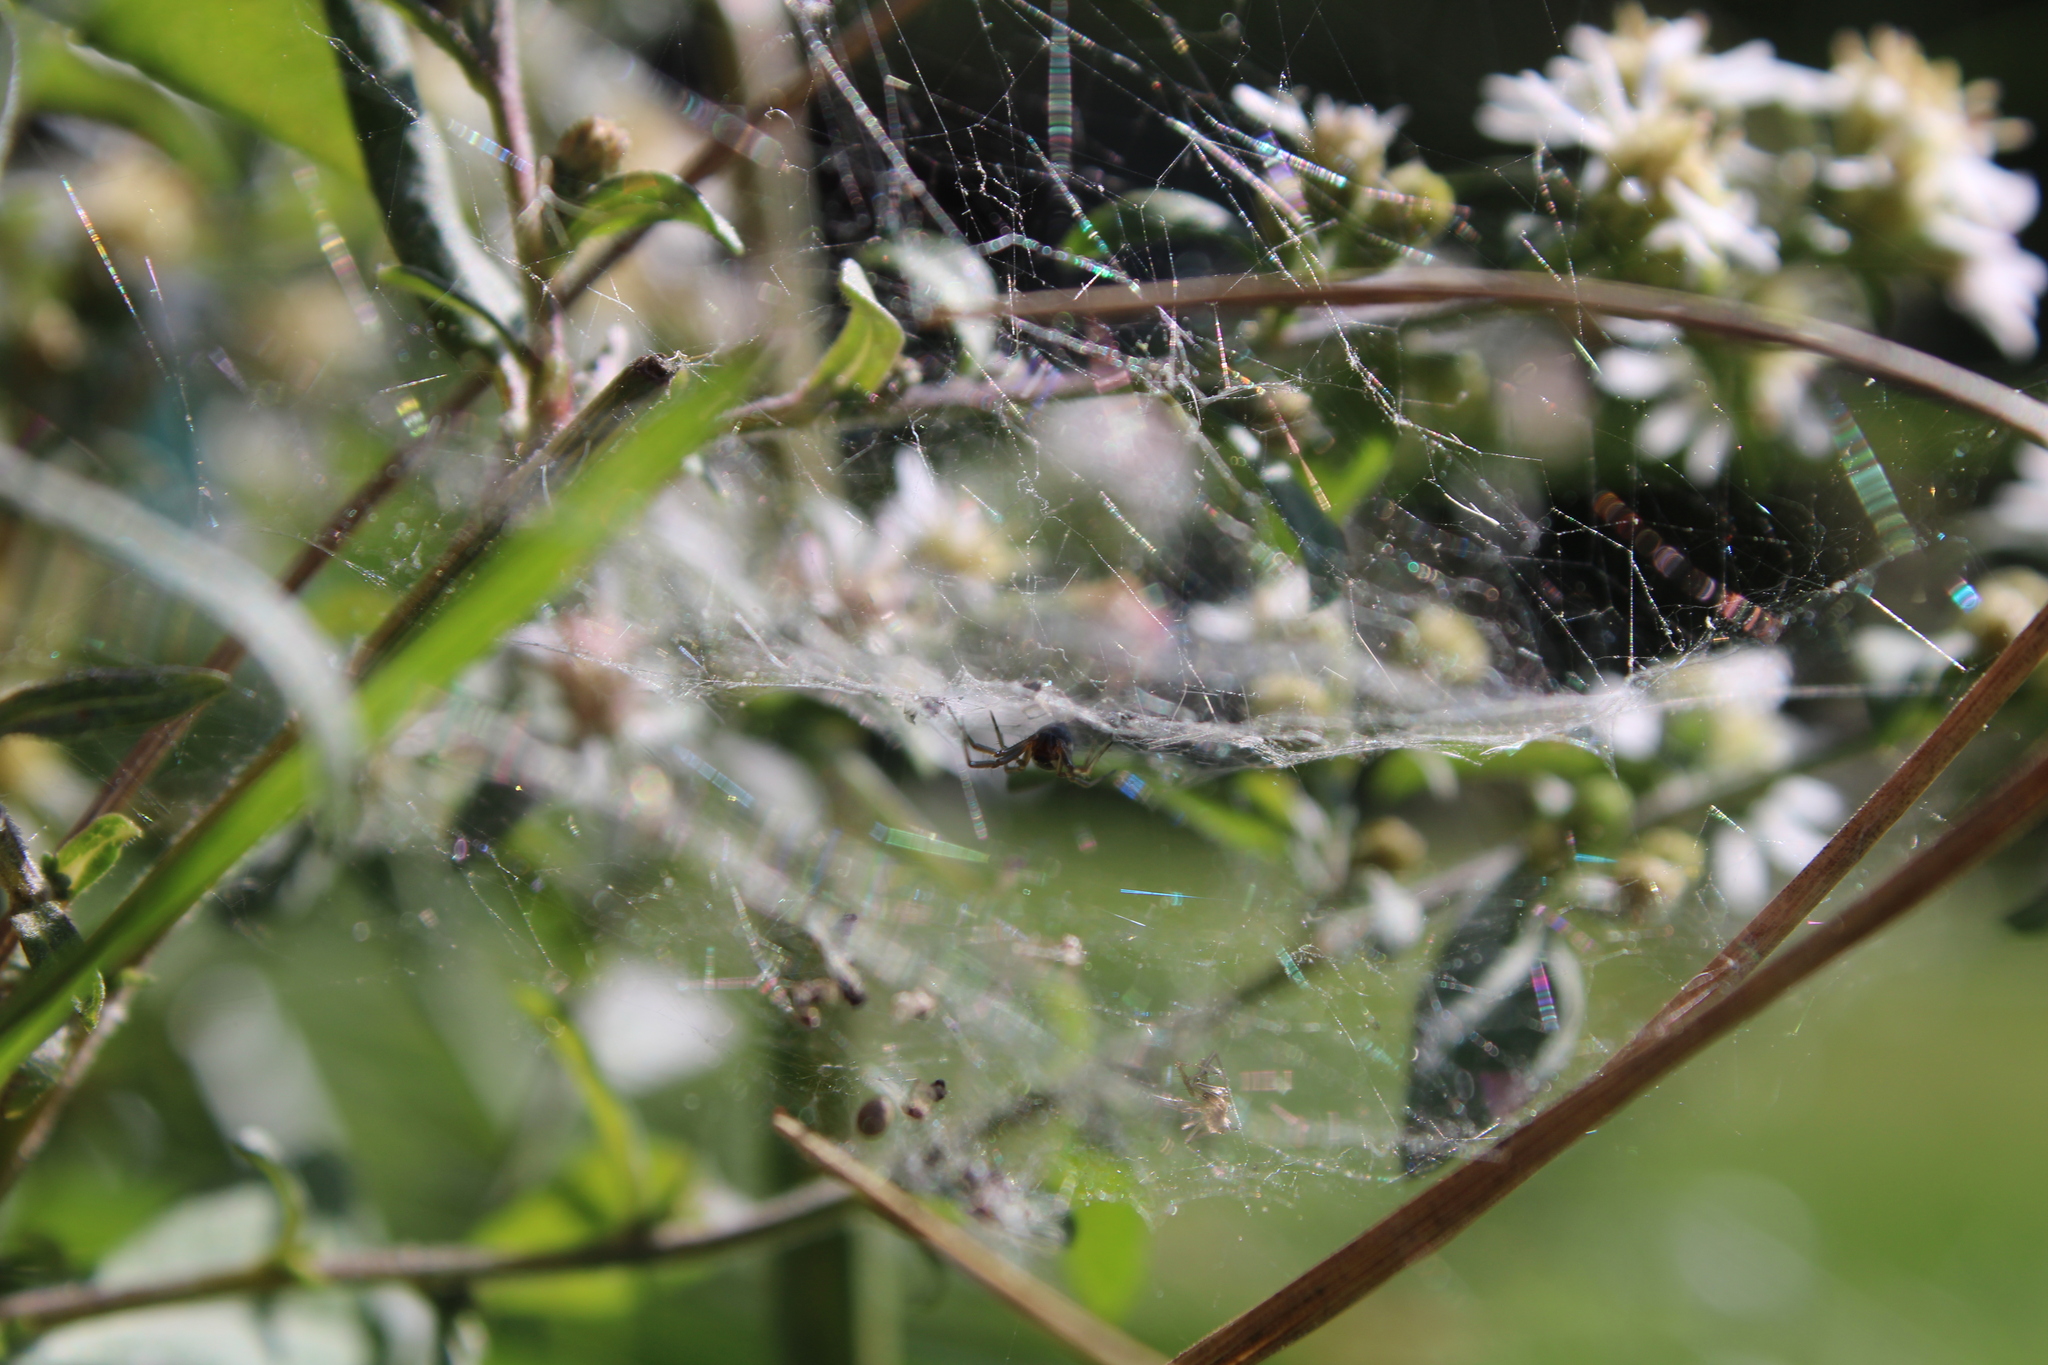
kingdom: Animalia
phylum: Arthropoda
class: Arachnida
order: Araneae
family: Linyphiidae
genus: Frontinella
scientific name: Frontinella pyramitela
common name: Bowl-and-doily spider
